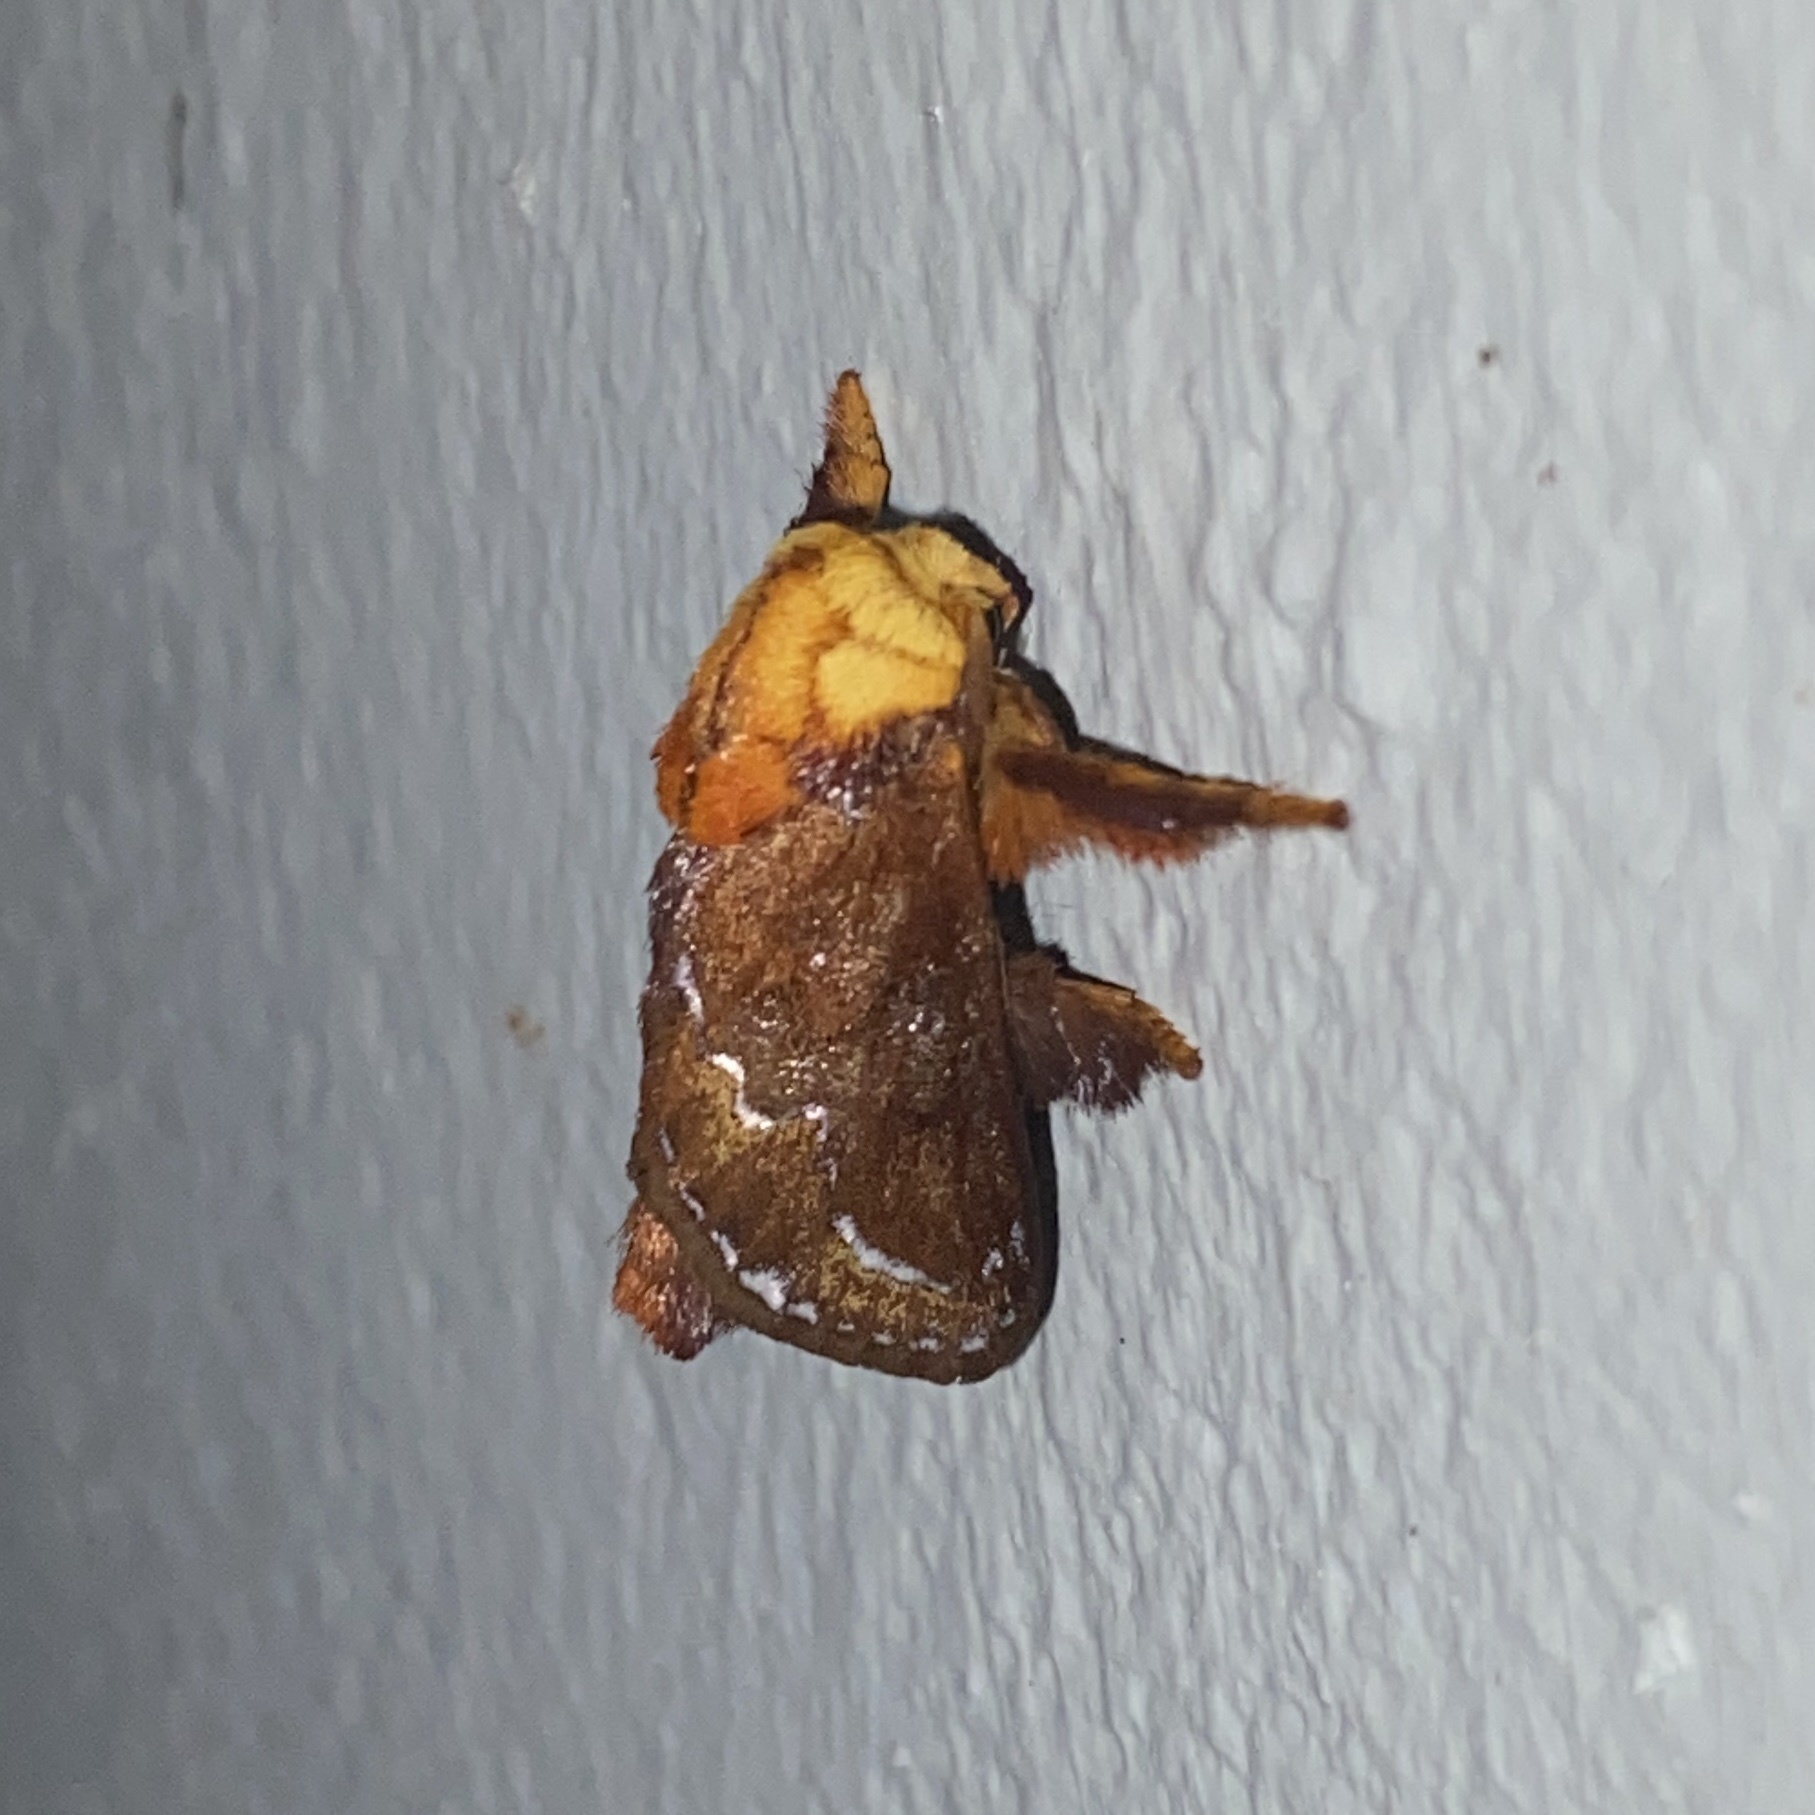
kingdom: Animalia
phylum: Arthropoda
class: Insecta
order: Lepidoptera
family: Limacodidae
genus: Miresa
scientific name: Miresa clarissa
